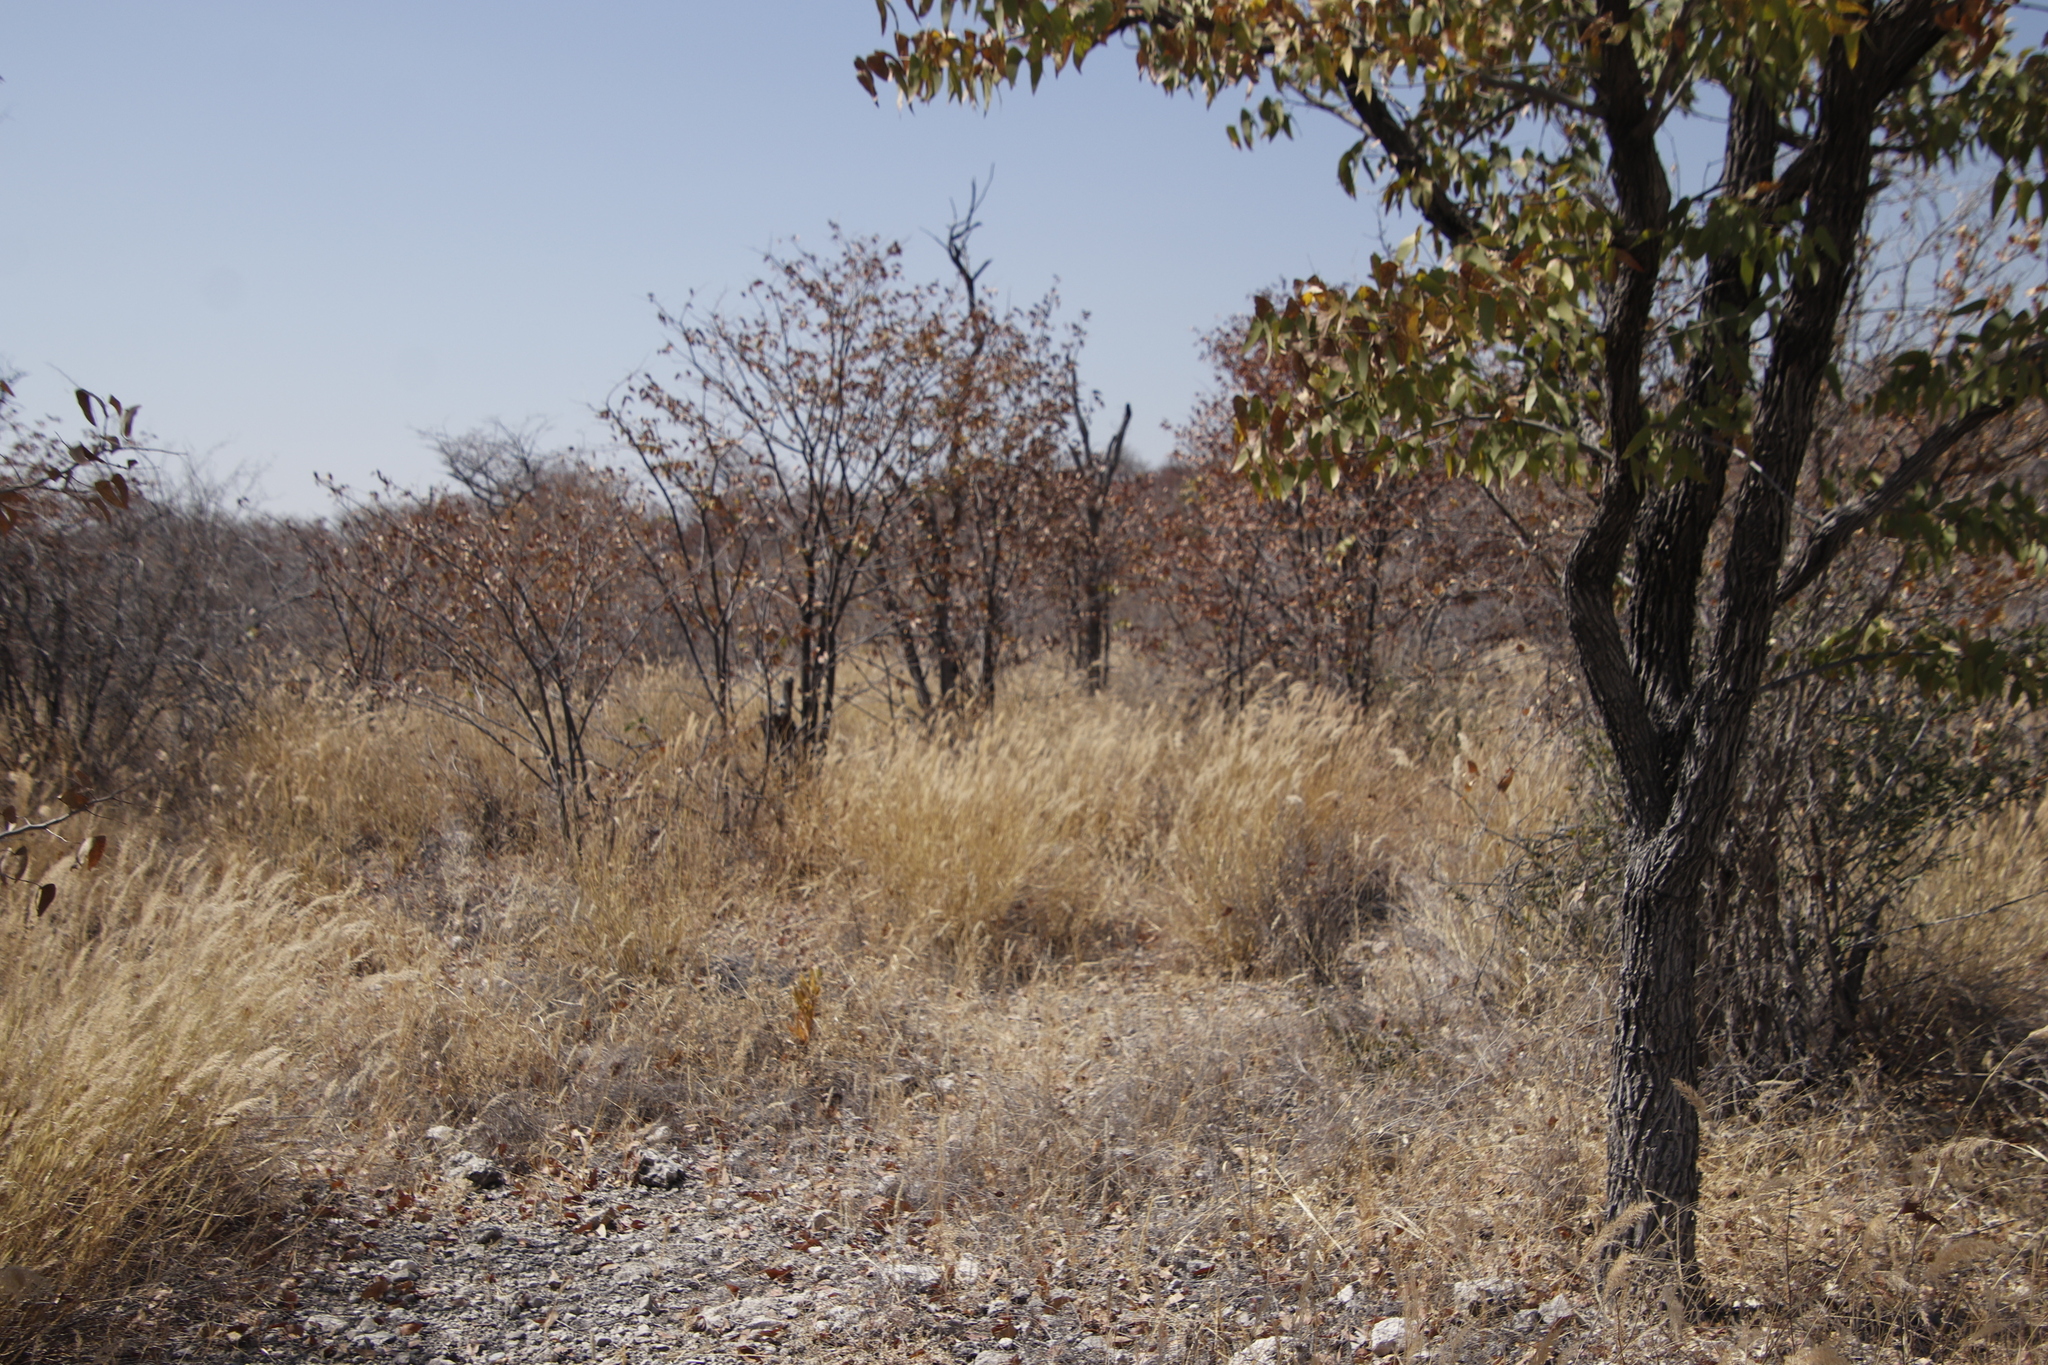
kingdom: Plantae
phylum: Tracheophyta
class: Magnoliopsida
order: Fabales
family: Fabaceae
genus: Colophospermum
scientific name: Colophospermum mopane
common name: Mopane
